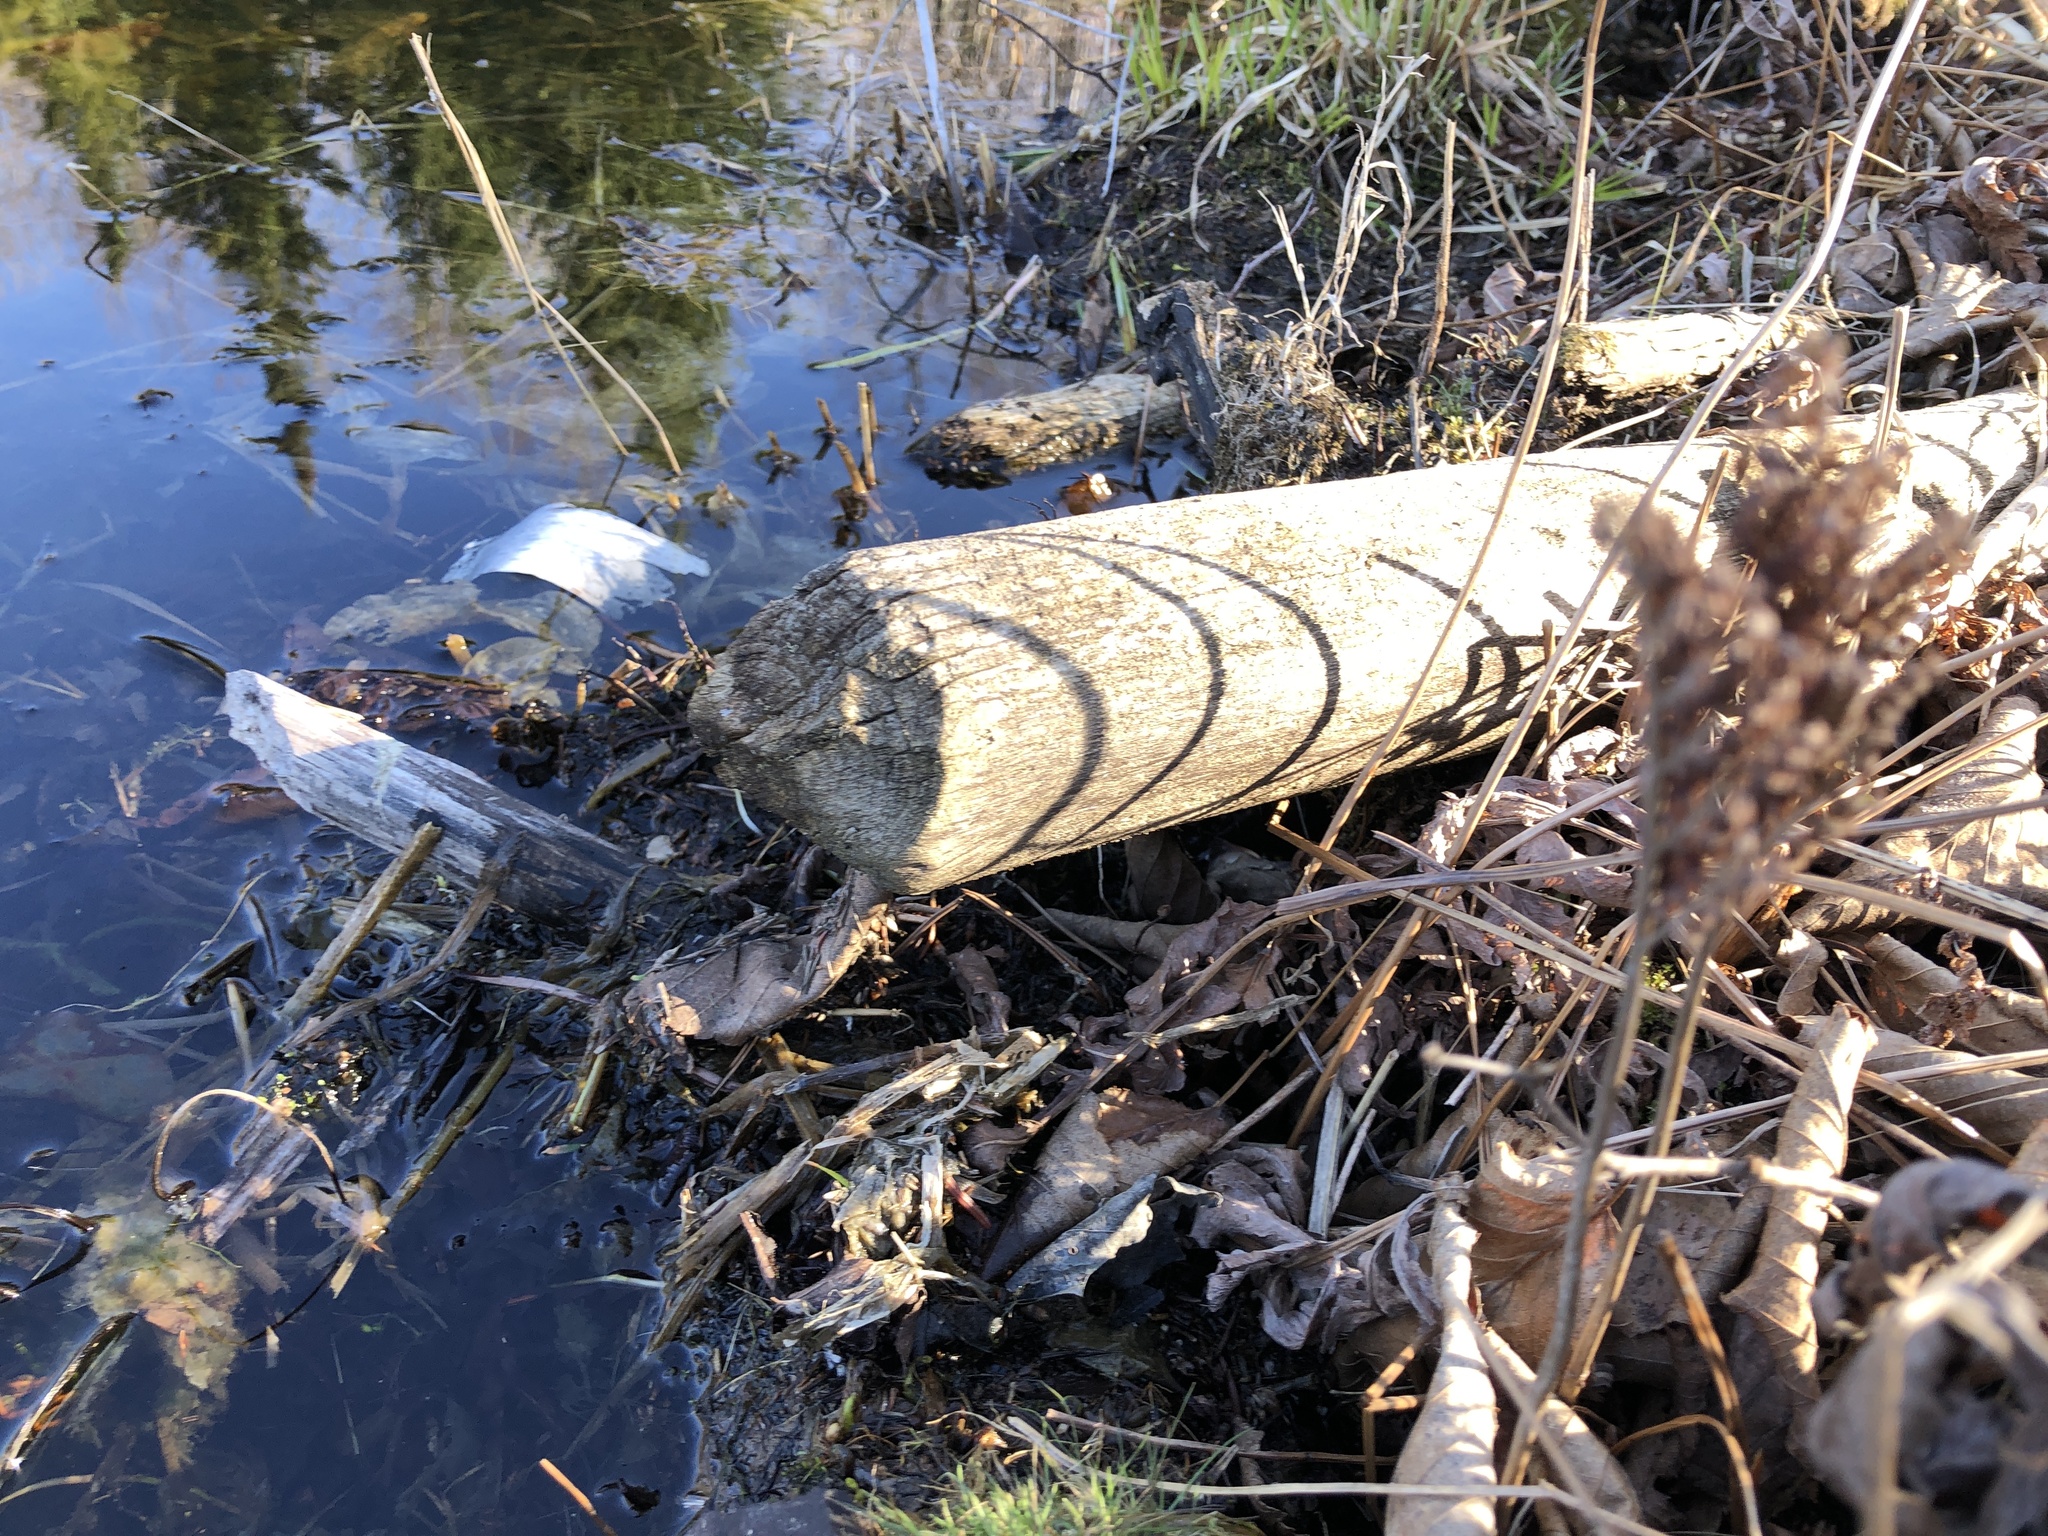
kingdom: Animalia
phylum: Chordata
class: Mammalia
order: Rodentia
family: Castoridae
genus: Castor
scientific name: Castor canadensis
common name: American beaver
